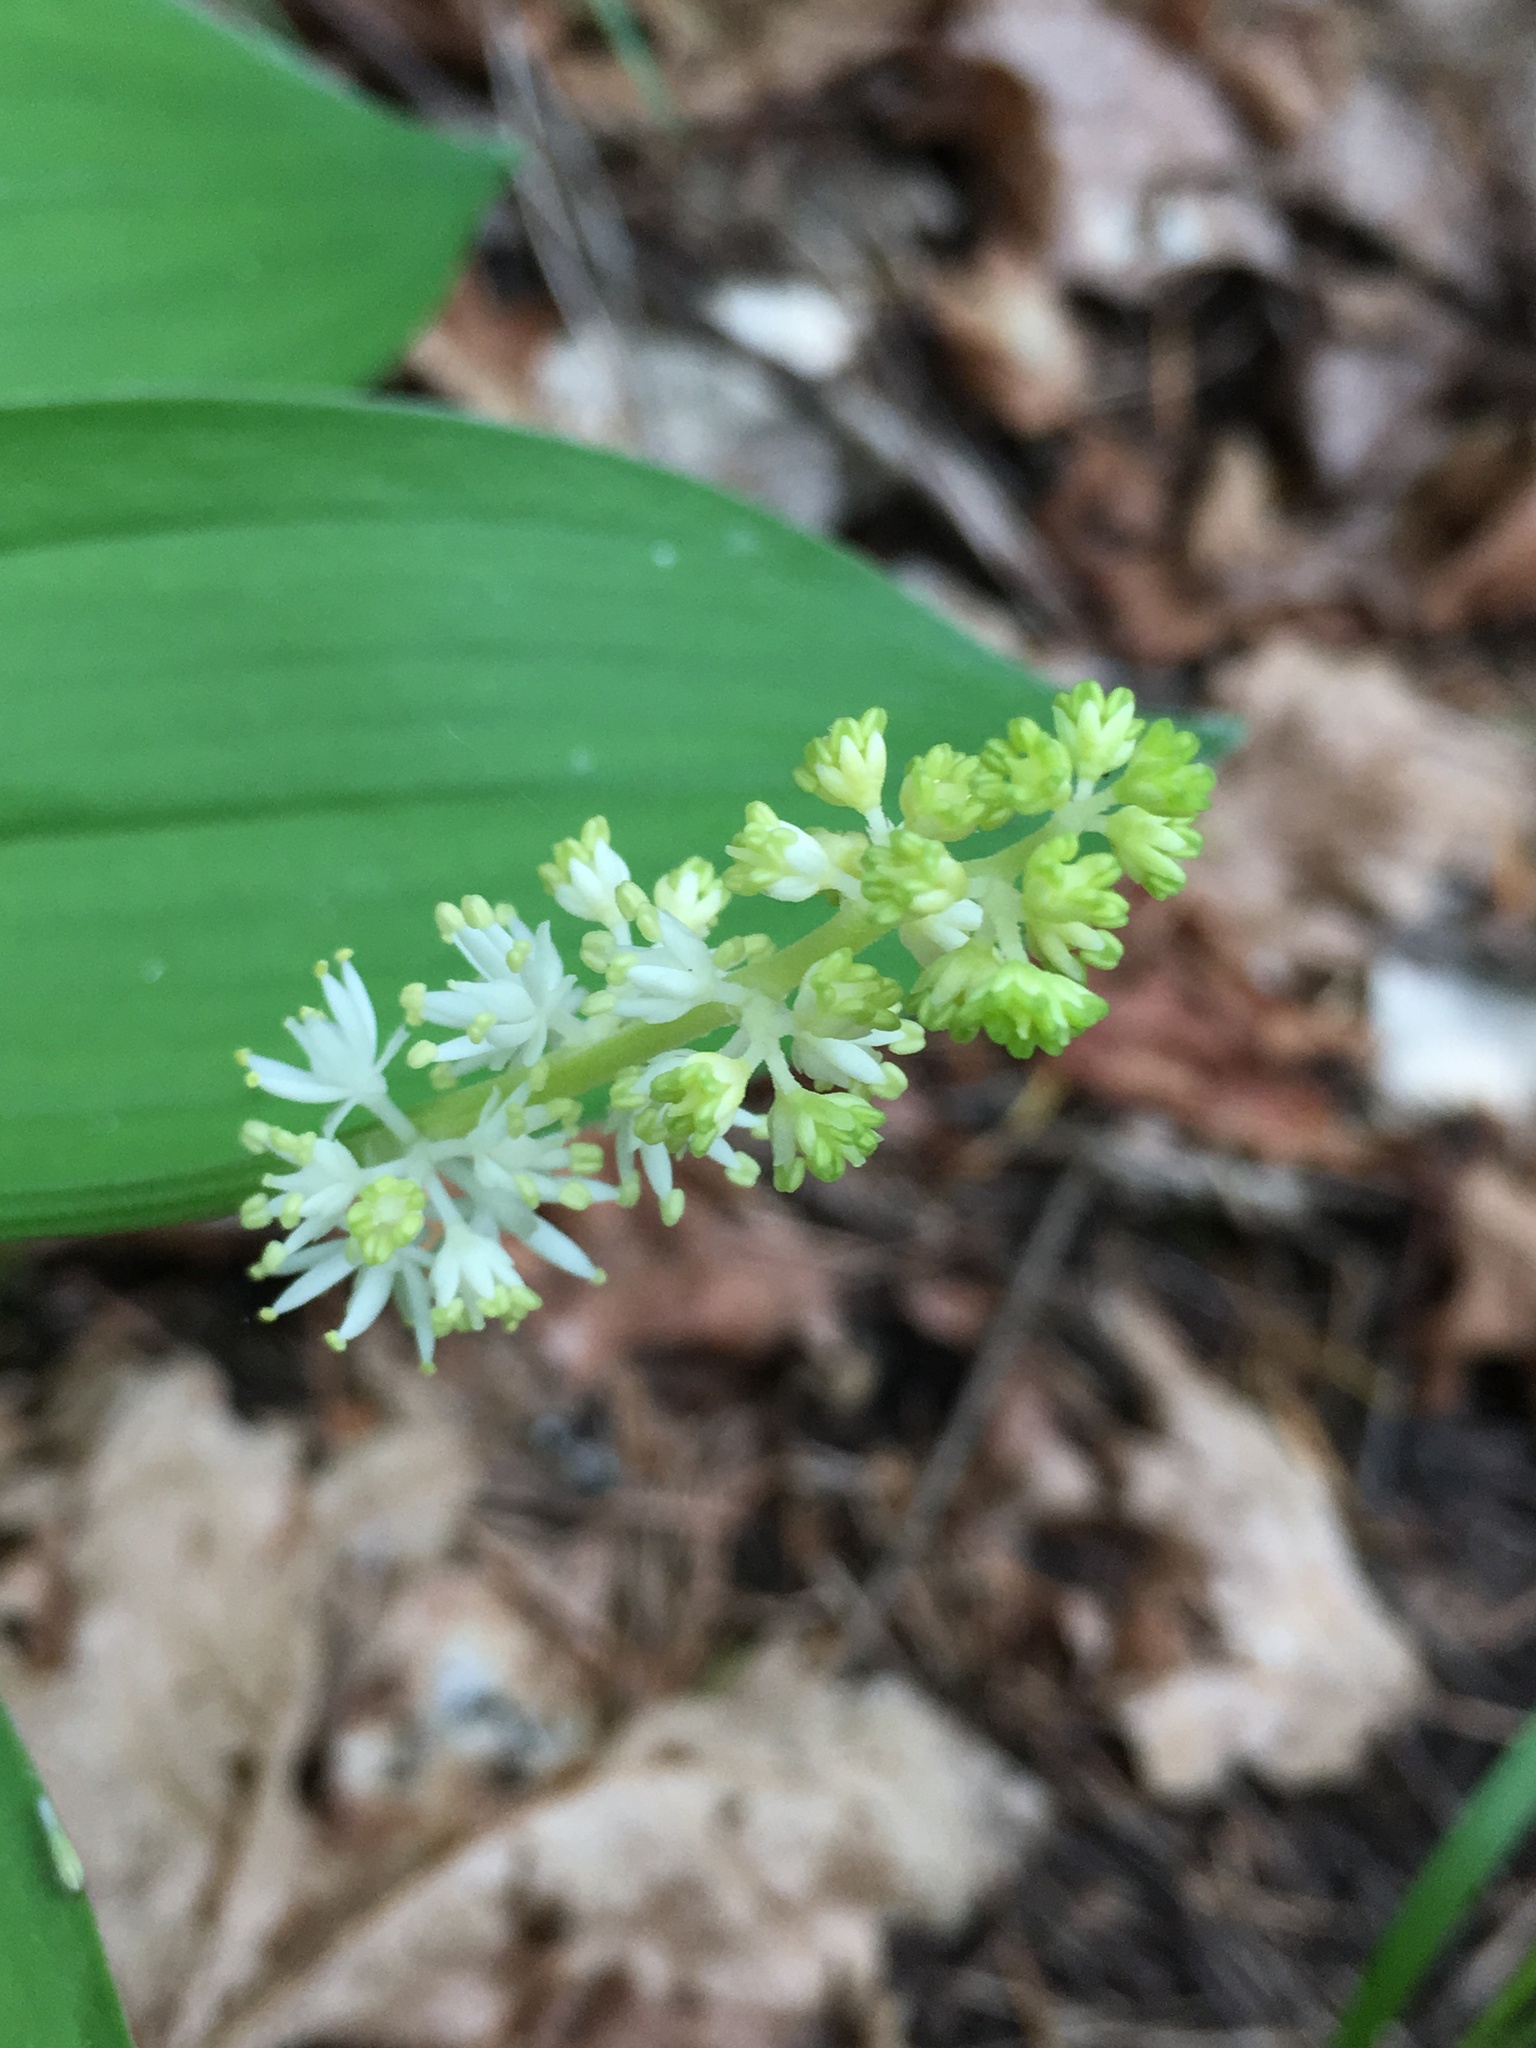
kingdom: Plantae
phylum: Tracheophyta
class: Liliopsida
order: Asparagales
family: Asparagaceae
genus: Maianthemum
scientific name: Maianthemum racemosum
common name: False spikenard
